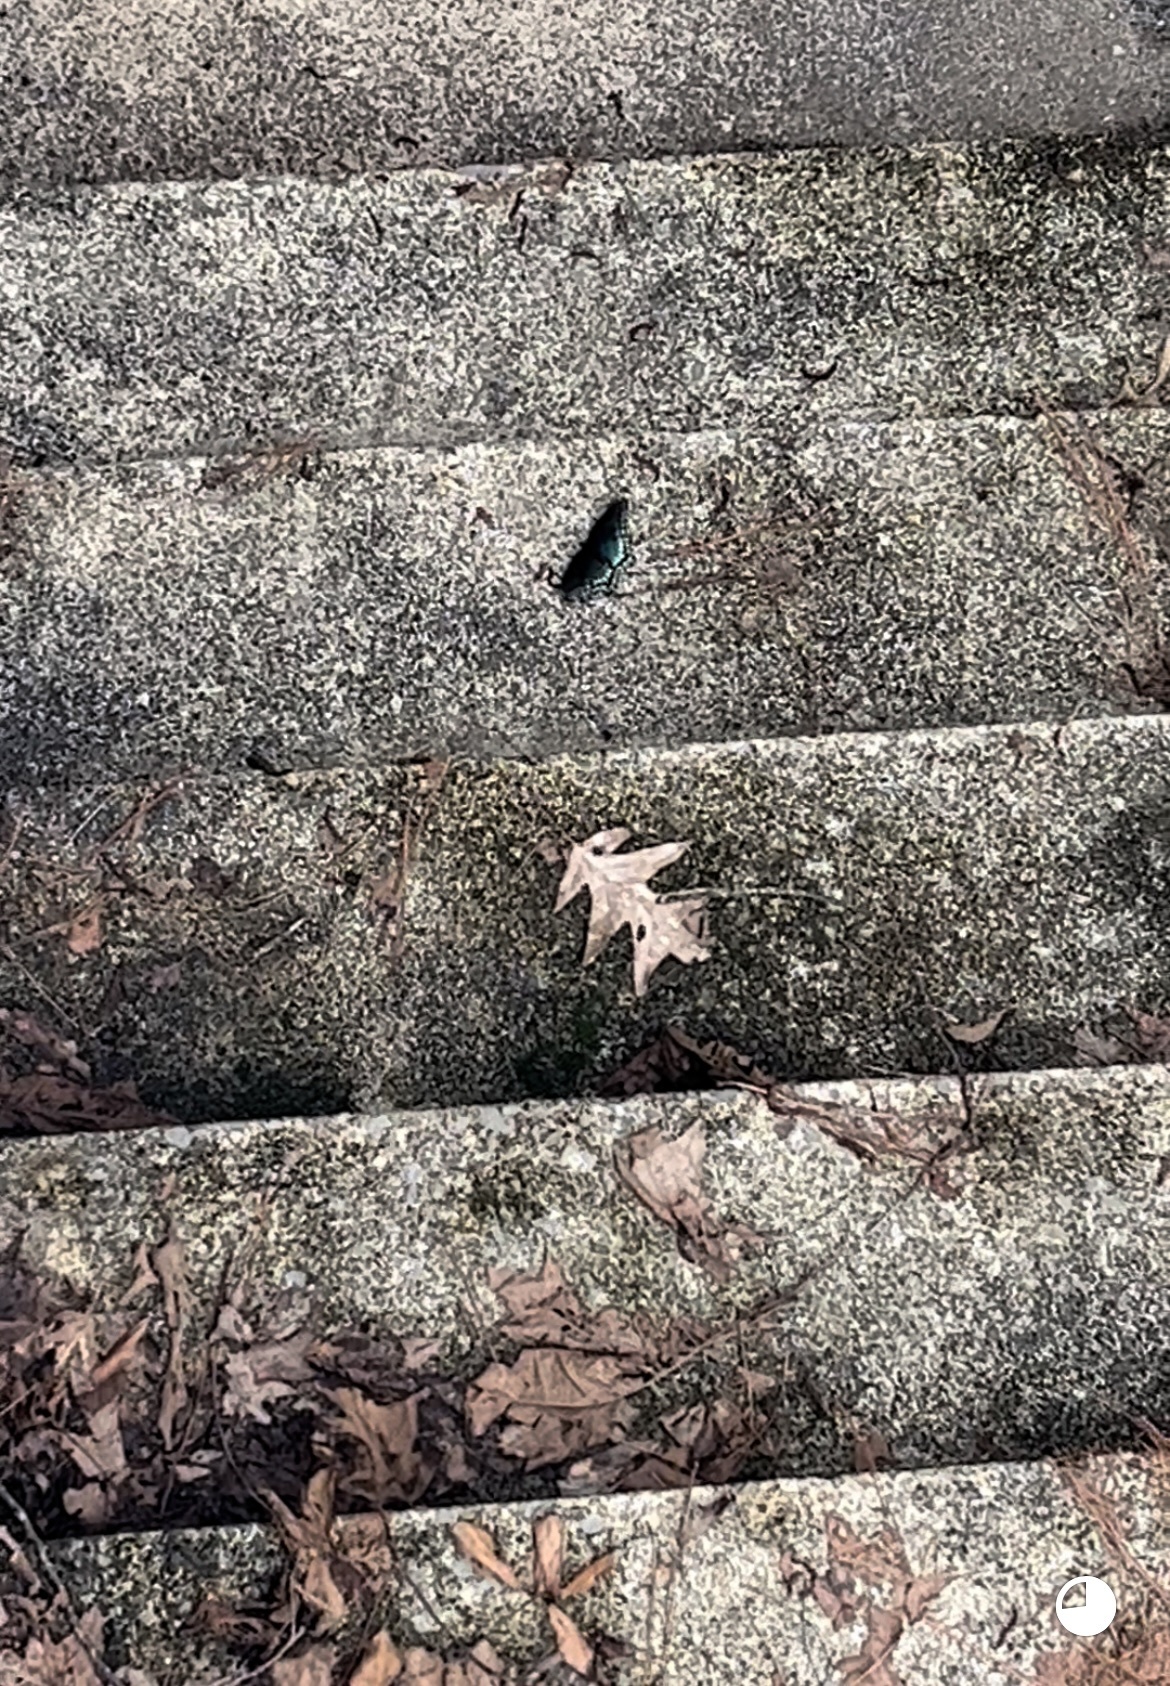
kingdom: Animalia
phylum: Arthropoda
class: Insecta
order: Lepidoptera
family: Nymphalidae
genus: Limenitis
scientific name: Limenitis astyanax
